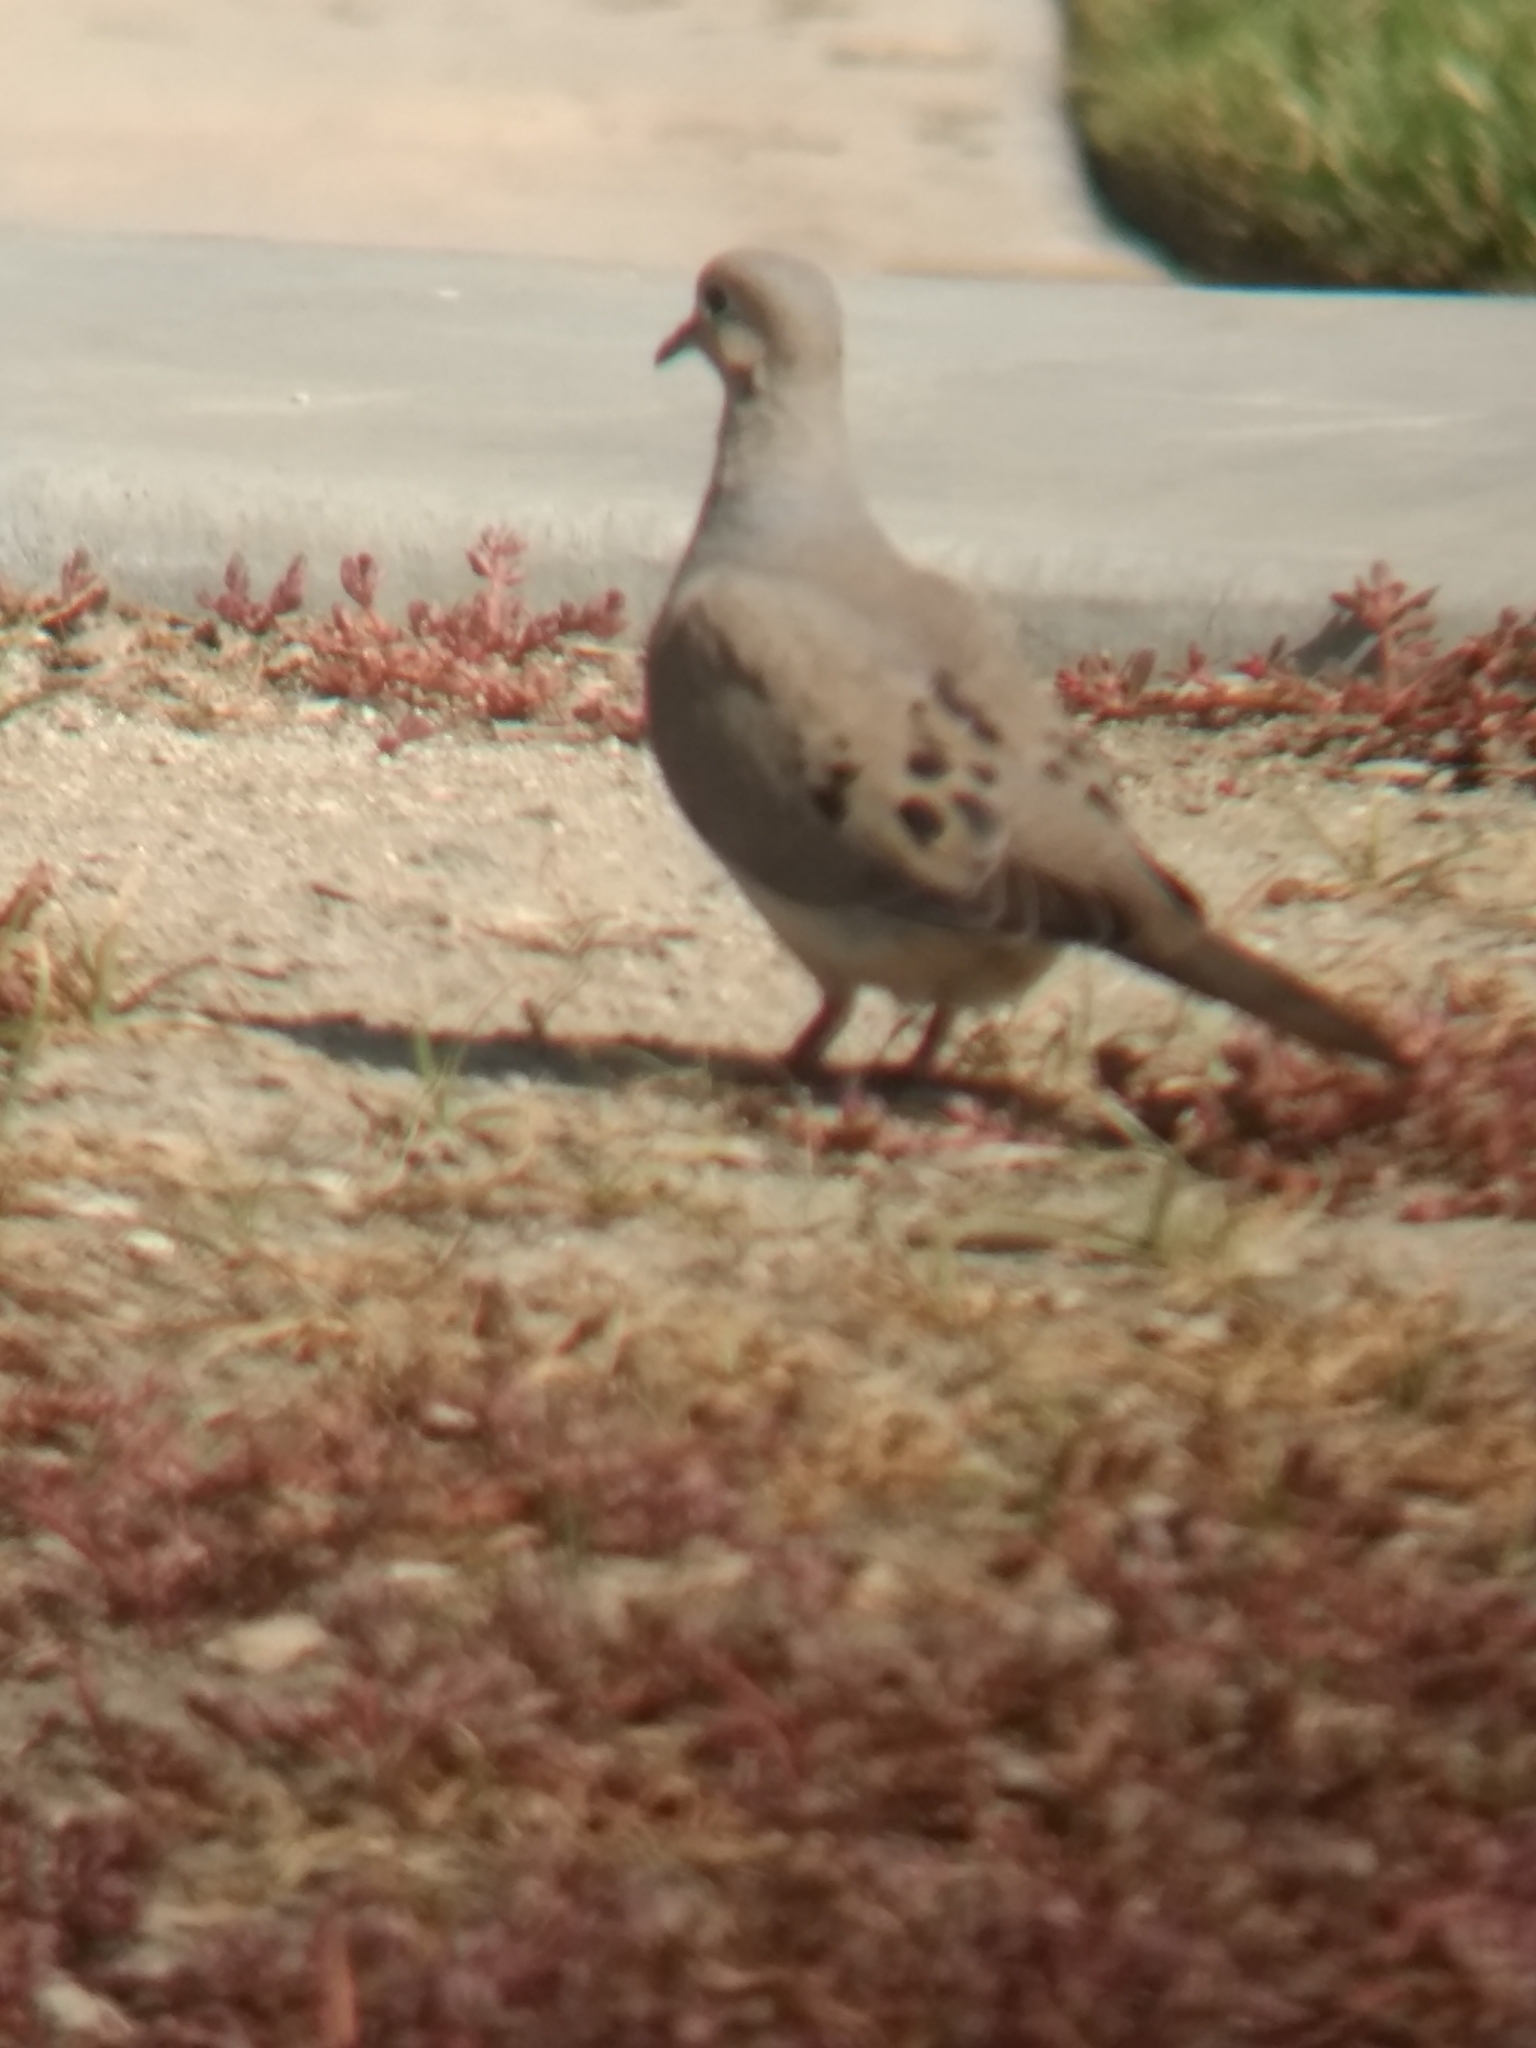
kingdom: Animalia
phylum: Chordata
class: Aves
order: Columbiformes
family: Columbidae
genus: Zenaida
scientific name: Zenaida macroura
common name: Mourning dove
